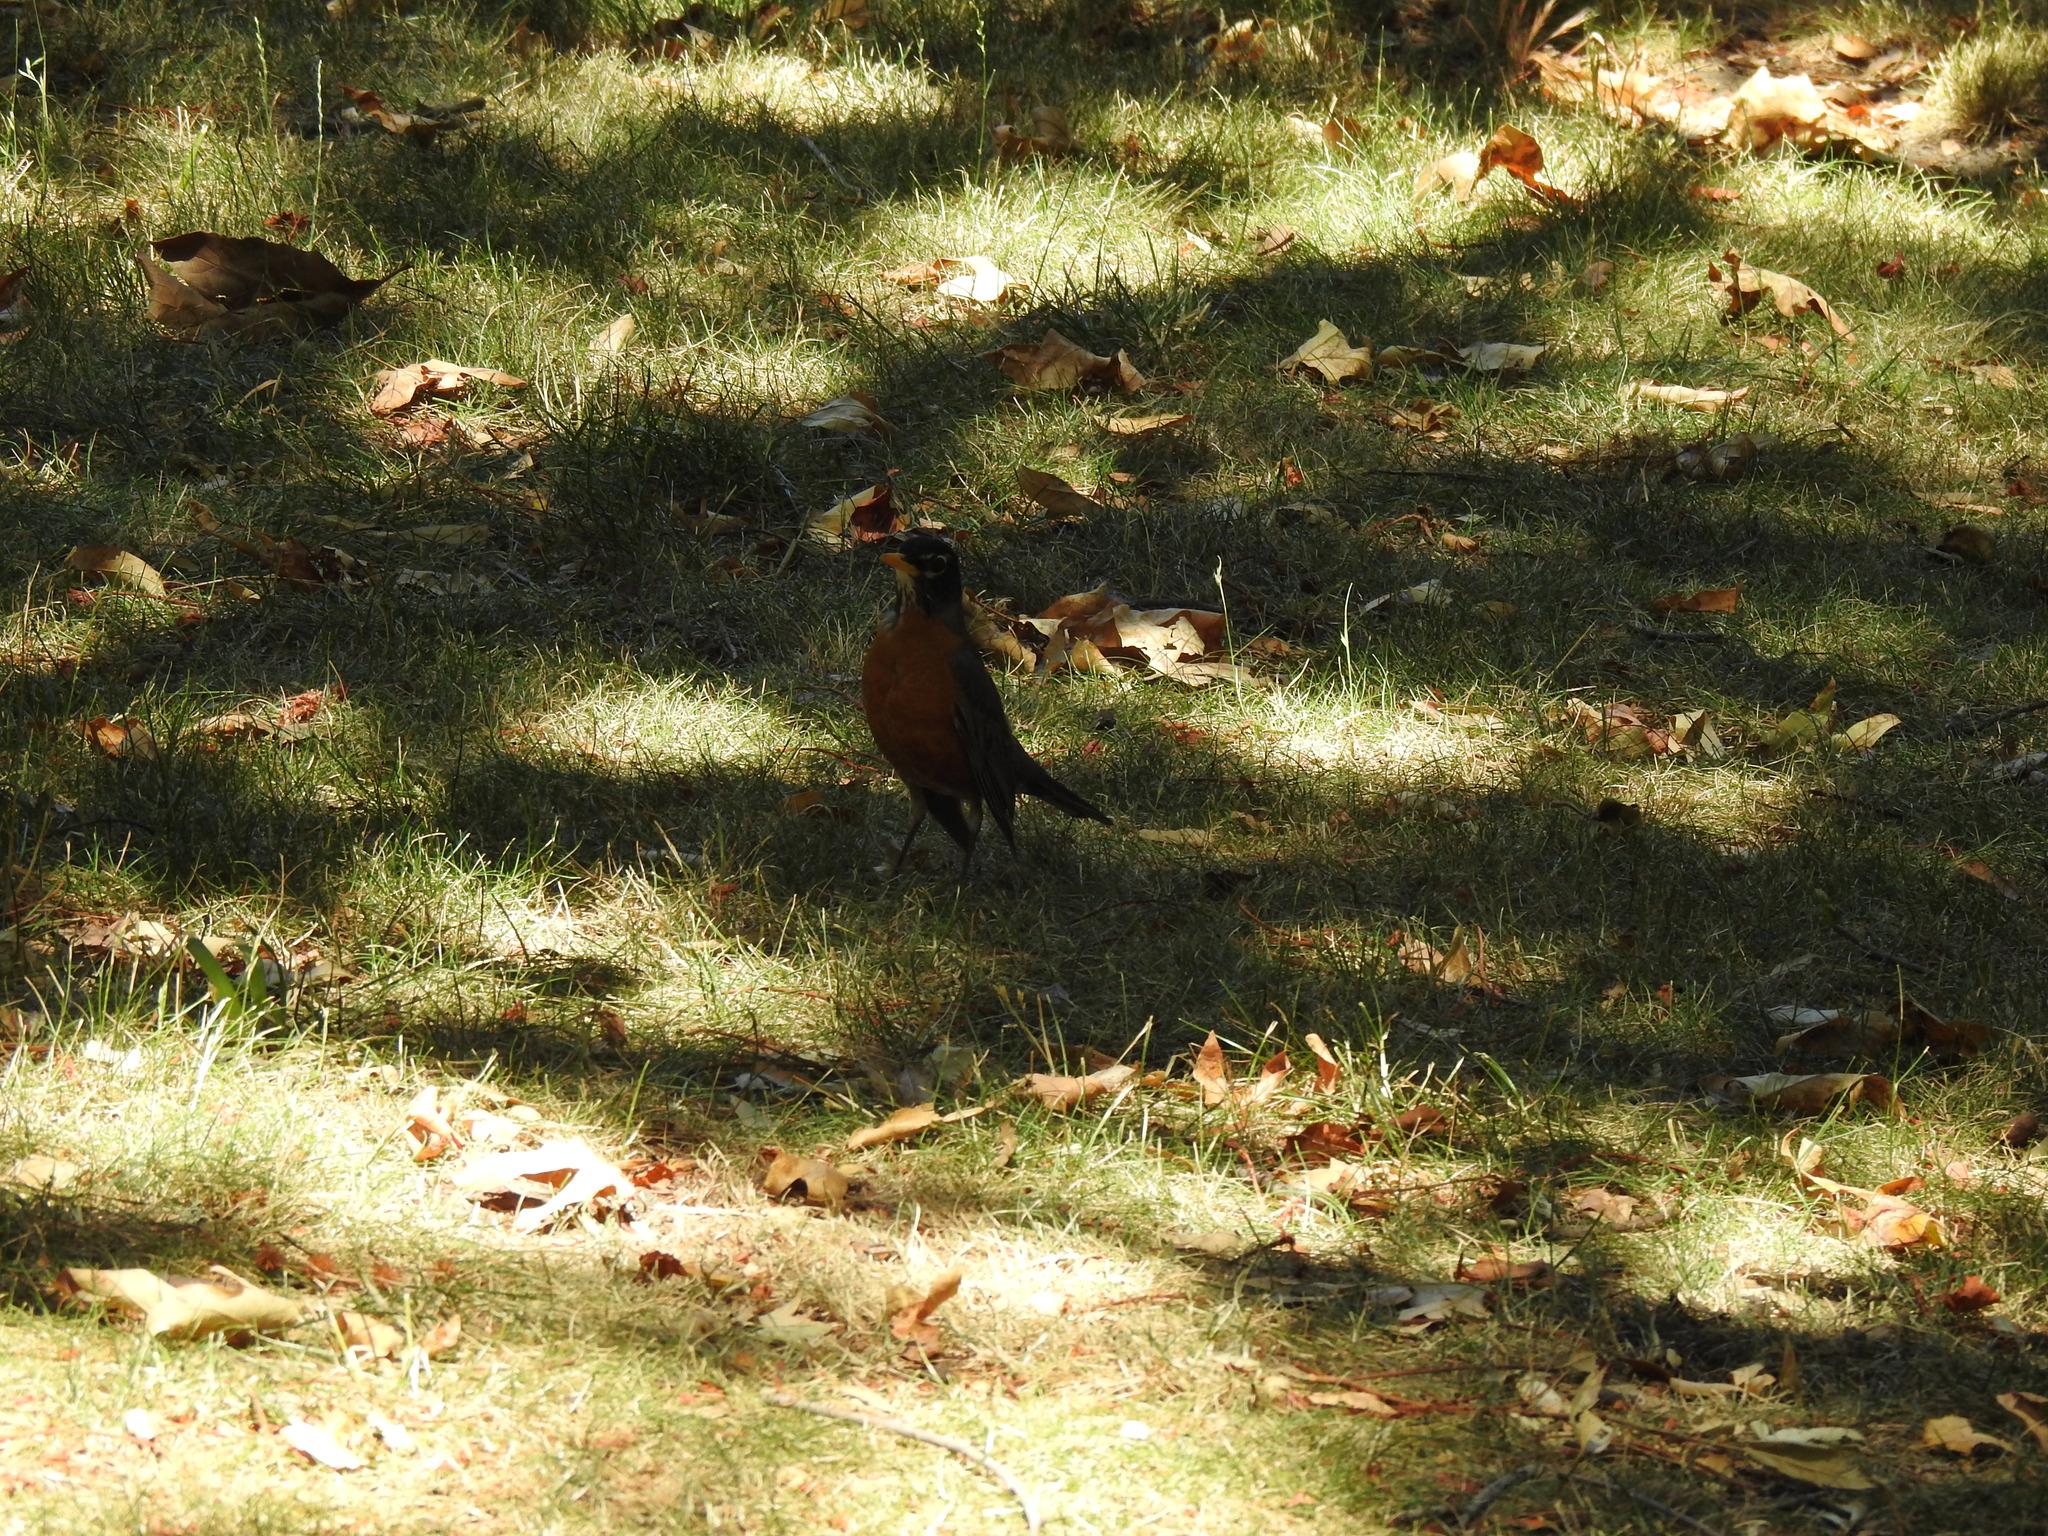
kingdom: Animalia
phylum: Chordata
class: Aves
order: Passeriformes
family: Turdidae
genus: Turdus
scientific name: Turdus migratorius
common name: American robin
